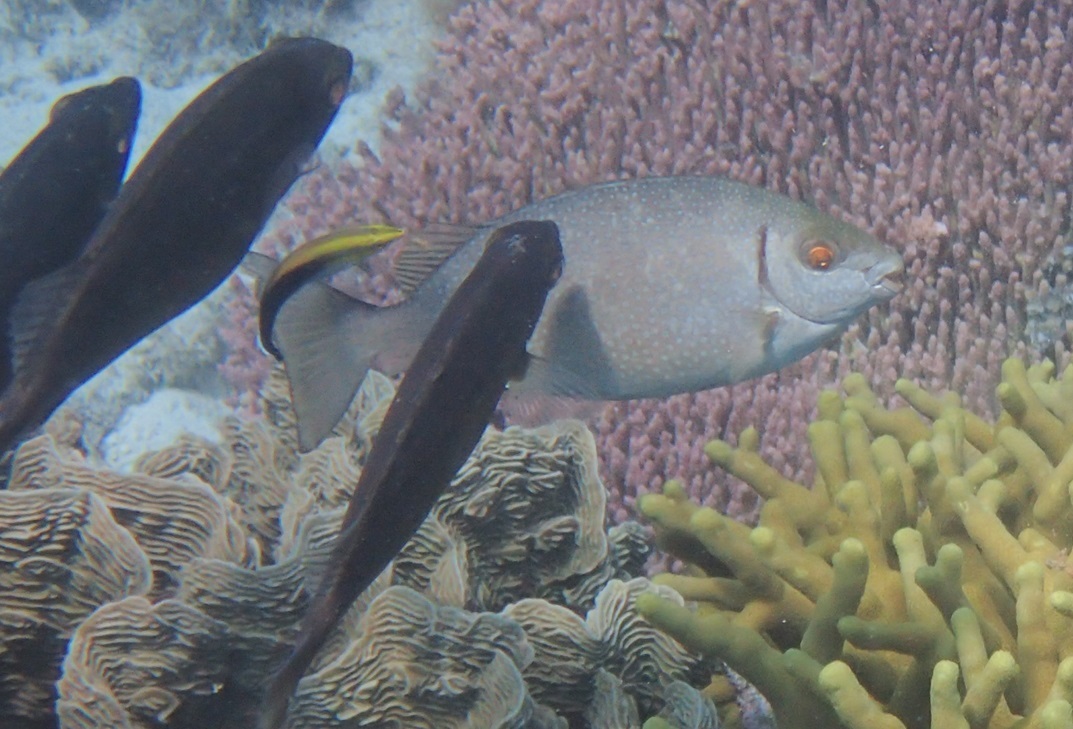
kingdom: Animalia
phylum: Chordata
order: Perciformes
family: Siganidae
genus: Siganus
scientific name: Siganus fuscescens
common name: Dusky rabbitfish
